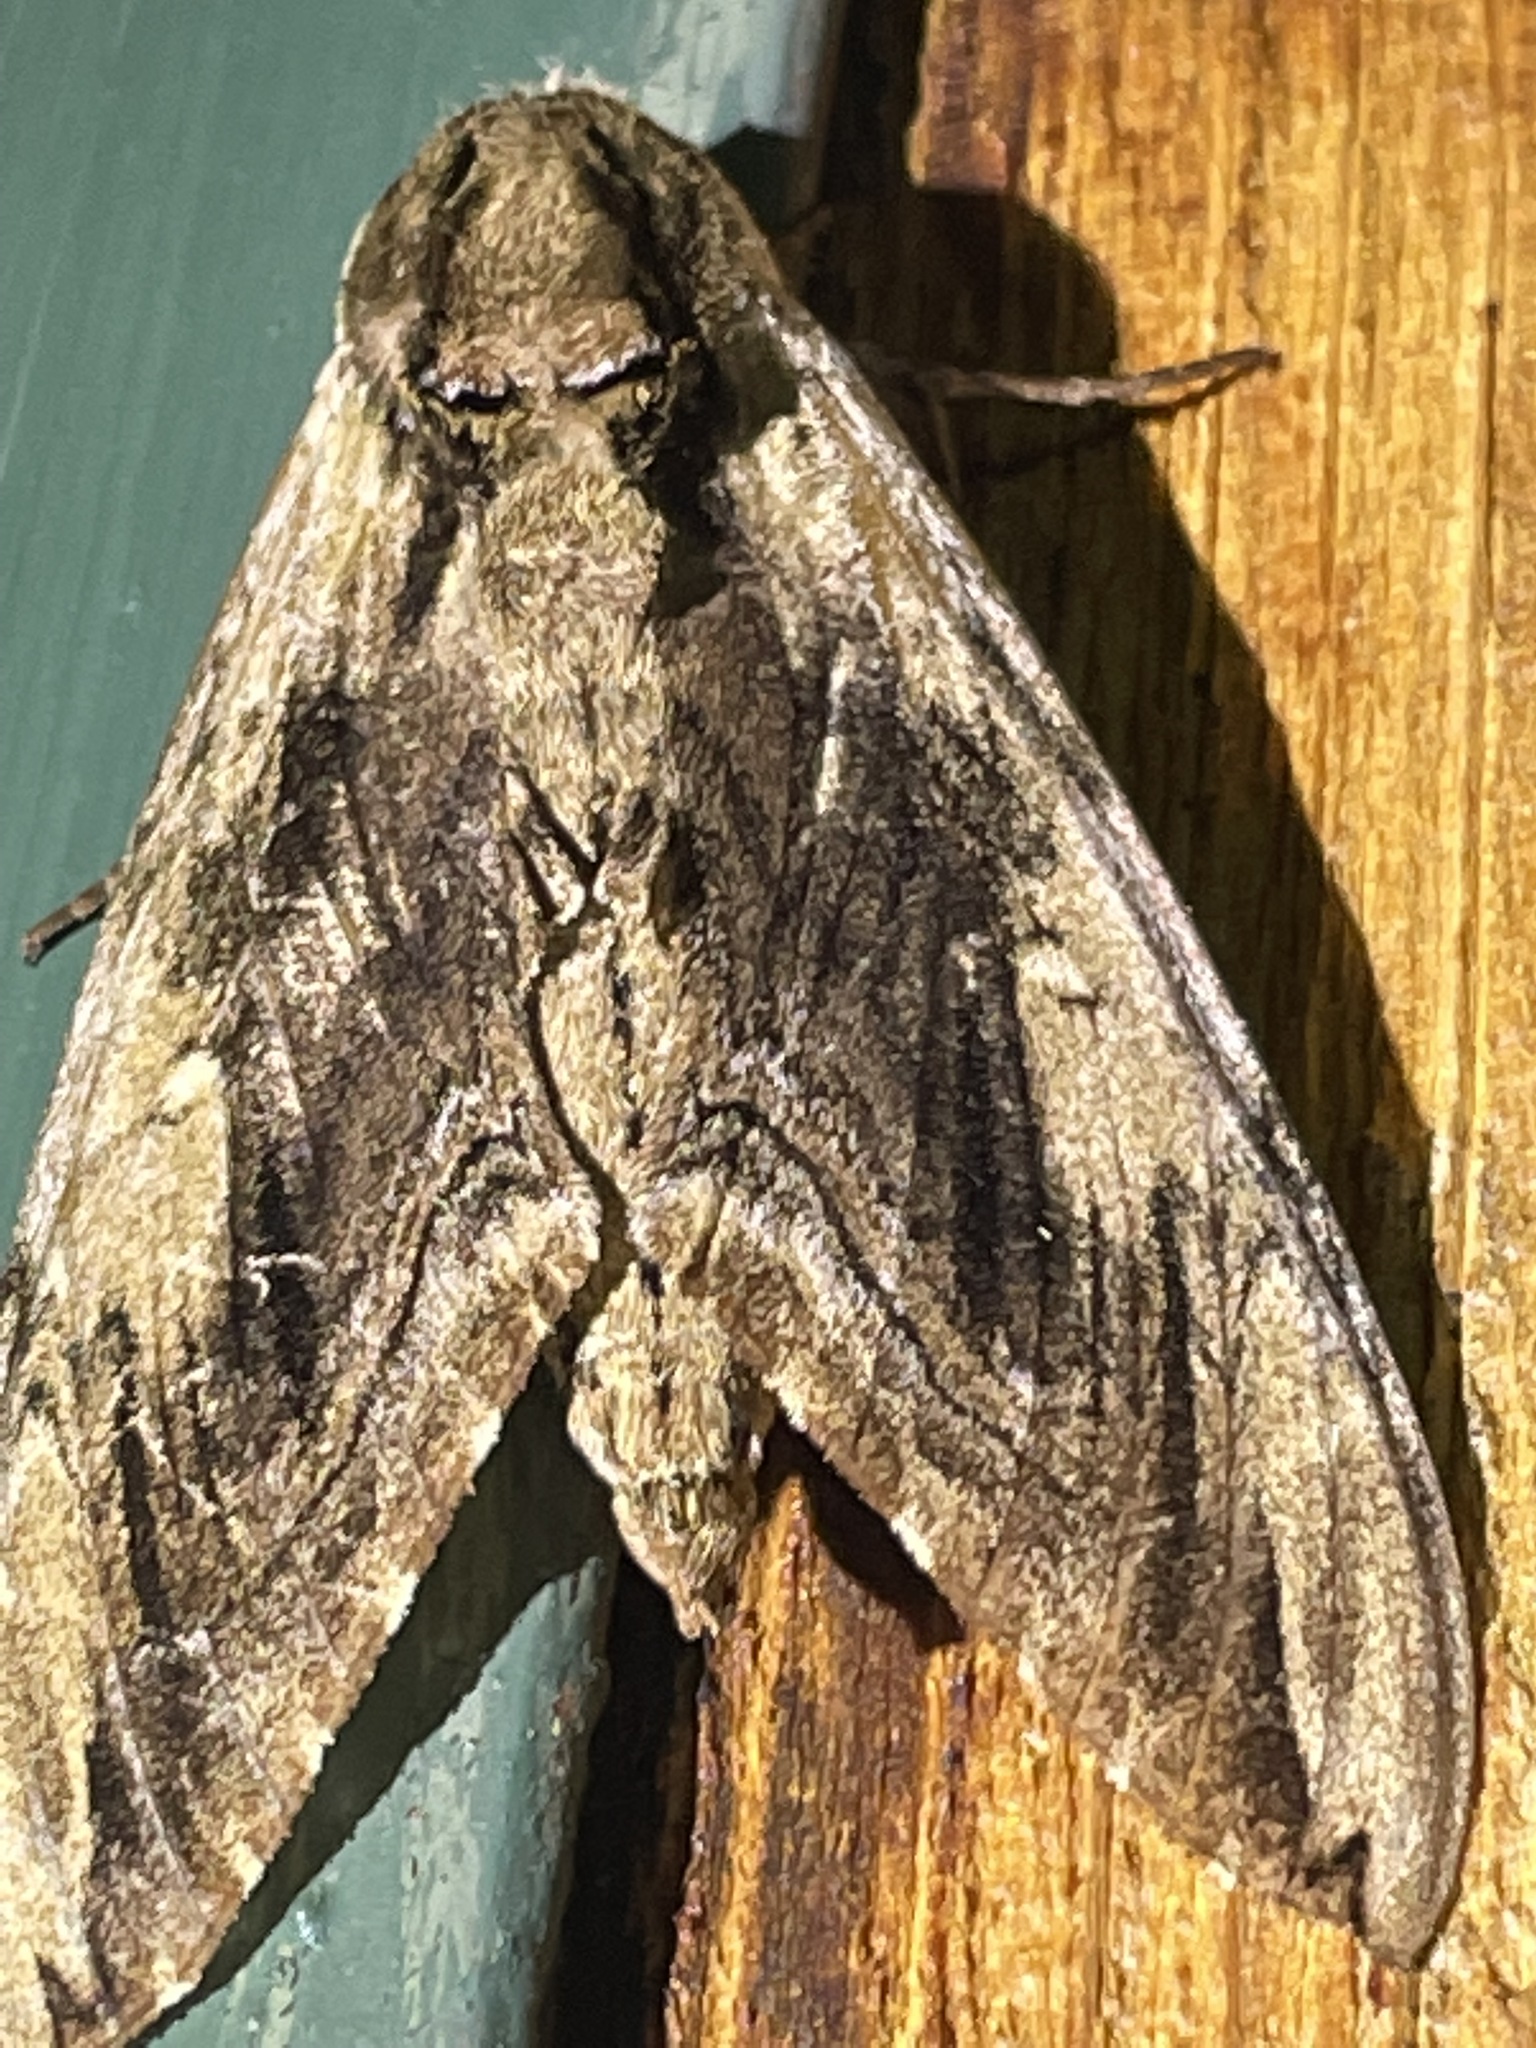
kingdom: Animalia
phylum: Arthropoda
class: Insecta
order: Lepidoptera
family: Sphingidae
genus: Ceratomia
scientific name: Ceratomia amyntor
